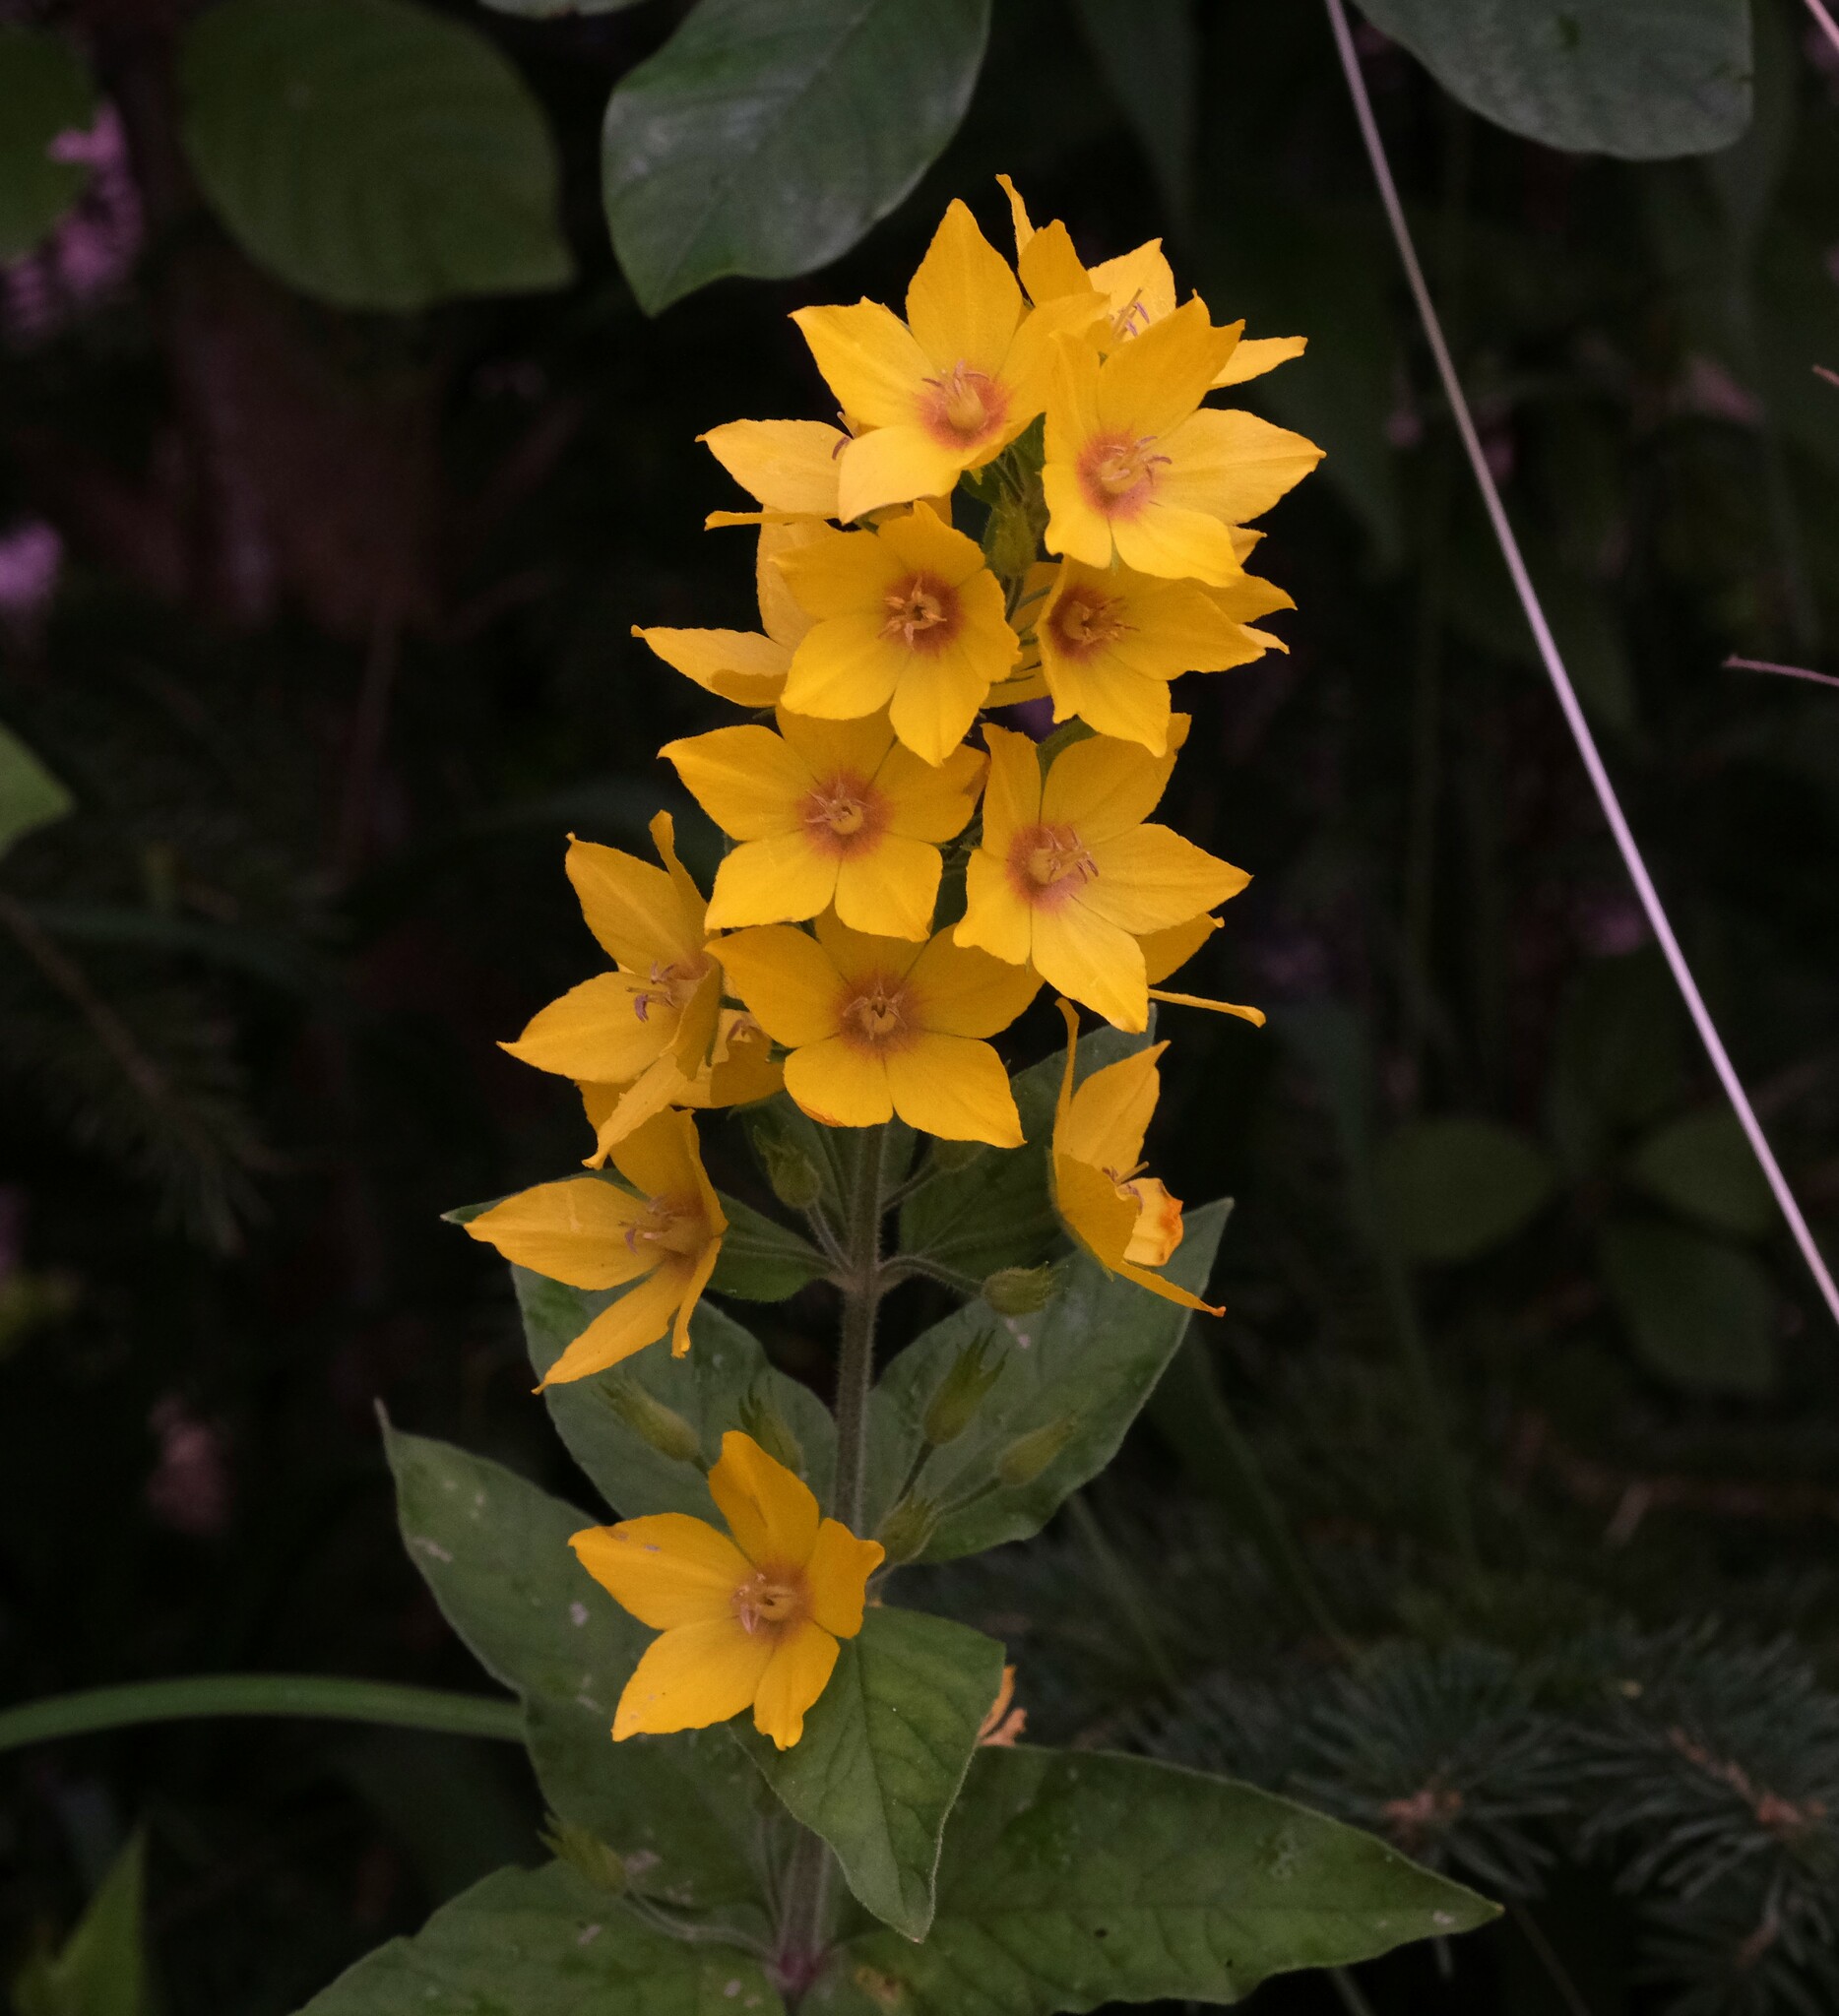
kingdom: Plantae
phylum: Tracheophyta
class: Magnoliopsida
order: Ericales
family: Primulaceae
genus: Lysimachia
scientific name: Lysimachia punctata
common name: Dotted loosestrife
